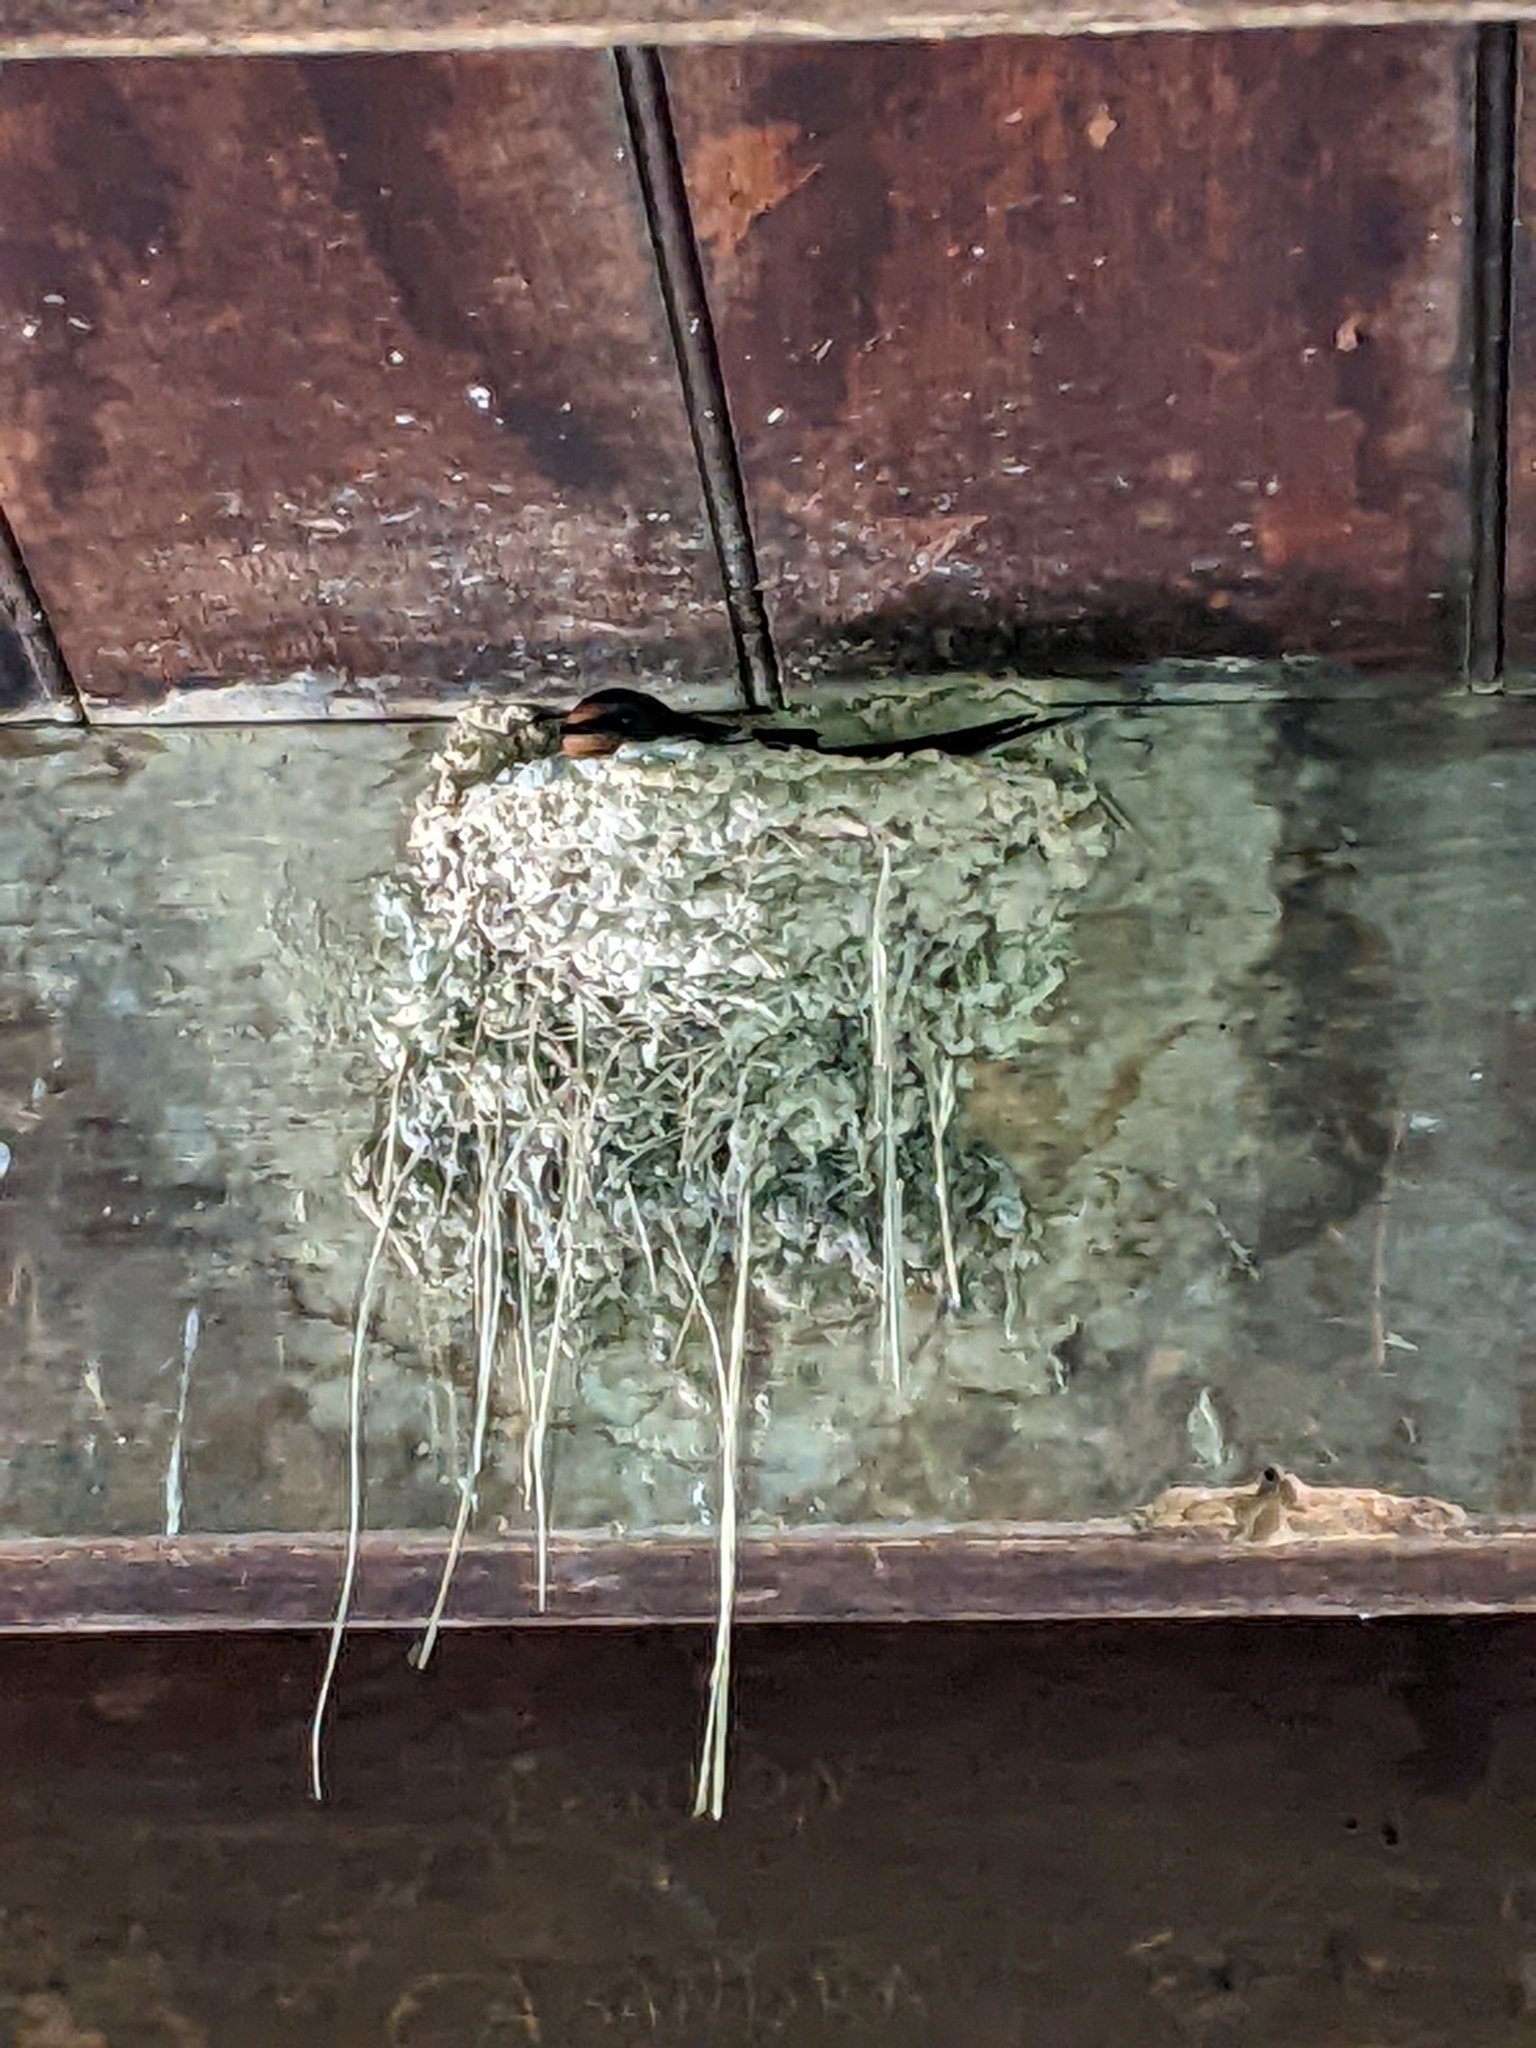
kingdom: Animalia
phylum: Chordata
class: Aves
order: Passeriformes
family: Hirundinidae
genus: Hirundo
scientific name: Hirundo rustica
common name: Barn swallow
